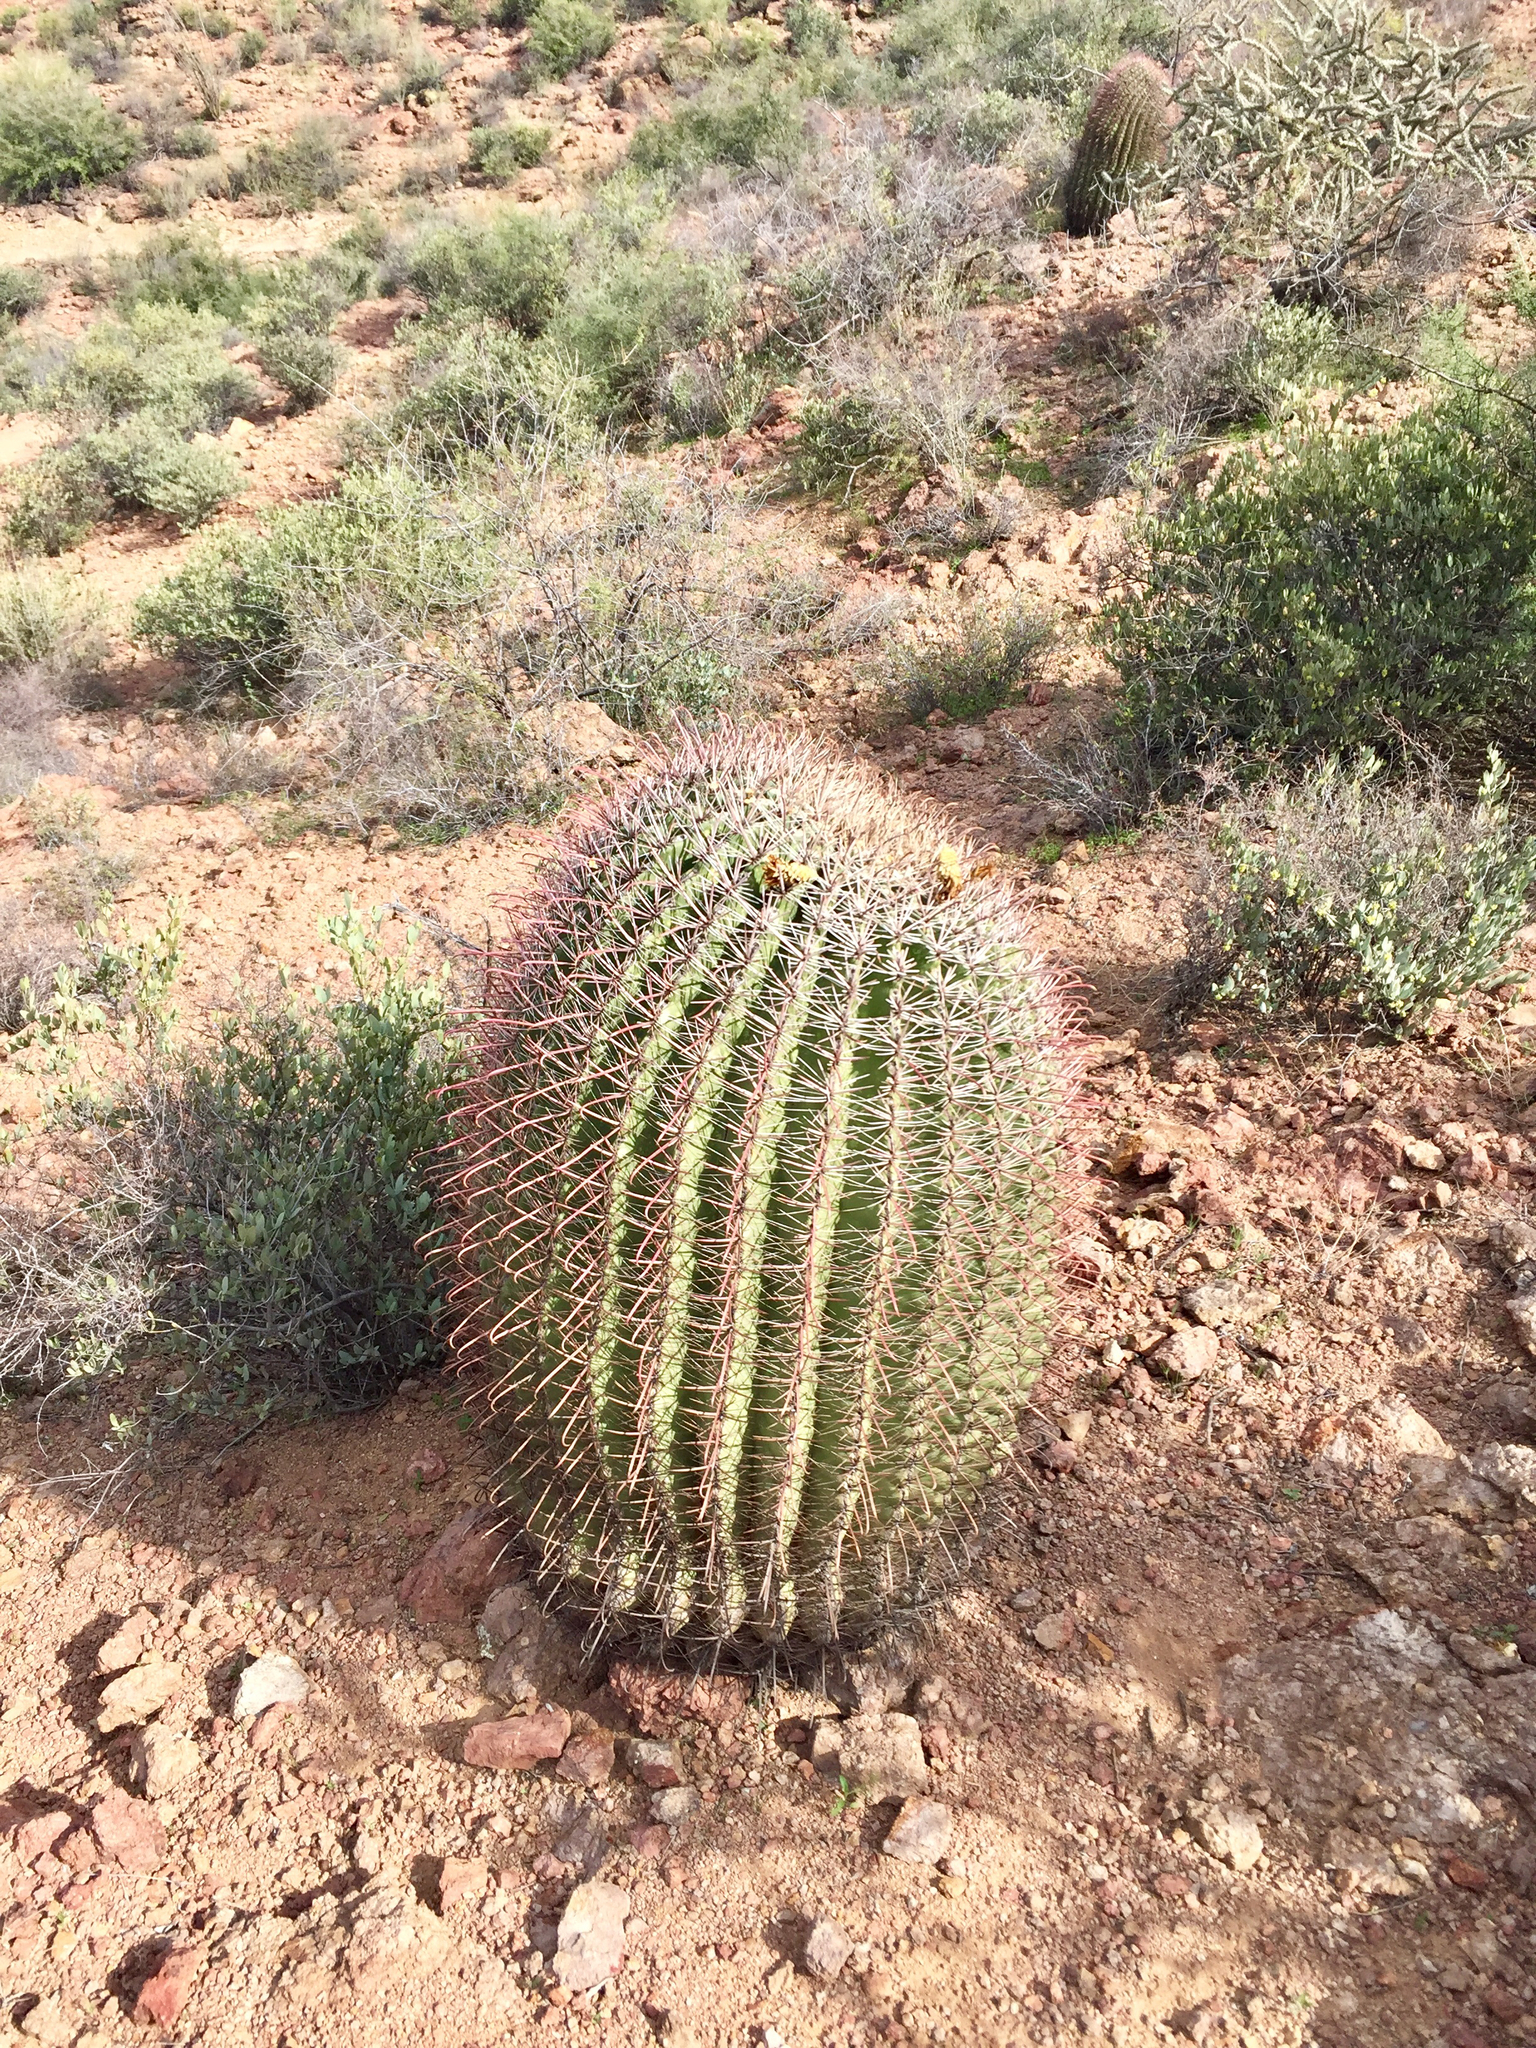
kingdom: Plantae
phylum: Tracheophyta
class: Magnoliopsida
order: Caryophyllales
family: Cactaceae
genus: Ferocactus
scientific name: Ferocactus wislizeni
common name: Candy barrel cactus
